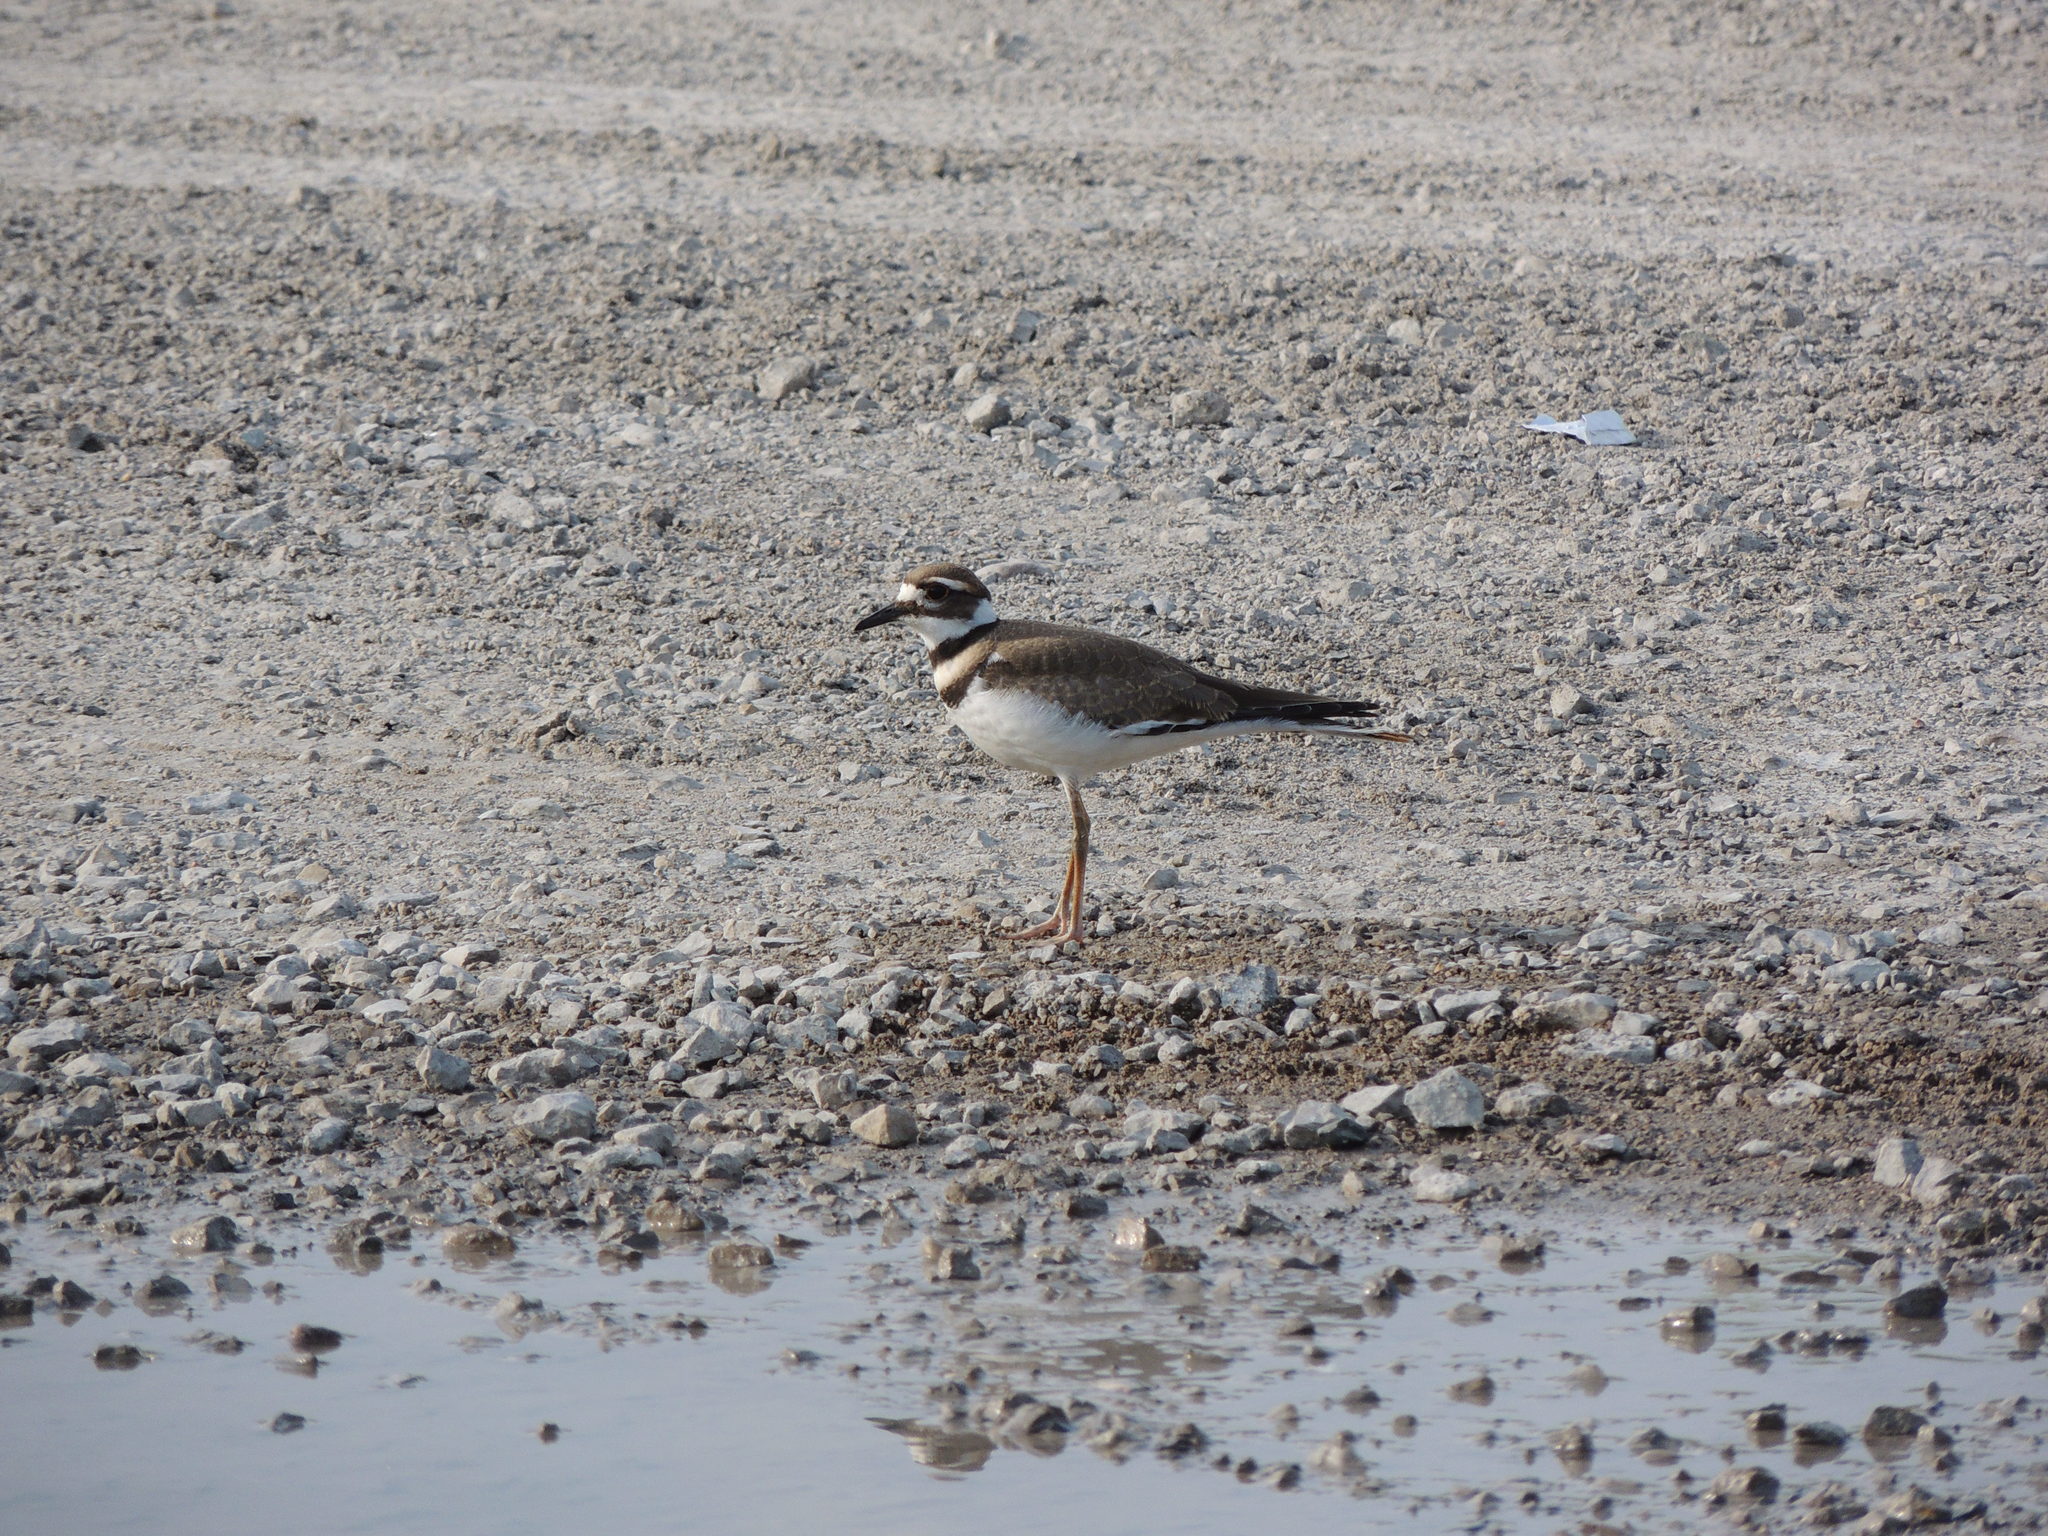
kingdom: Animalia
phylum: Chordata
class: Aves
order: Charadriiformes
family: Charadriidae
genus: Charadrius
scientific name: Charadrius vociferus
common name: Killdeer
